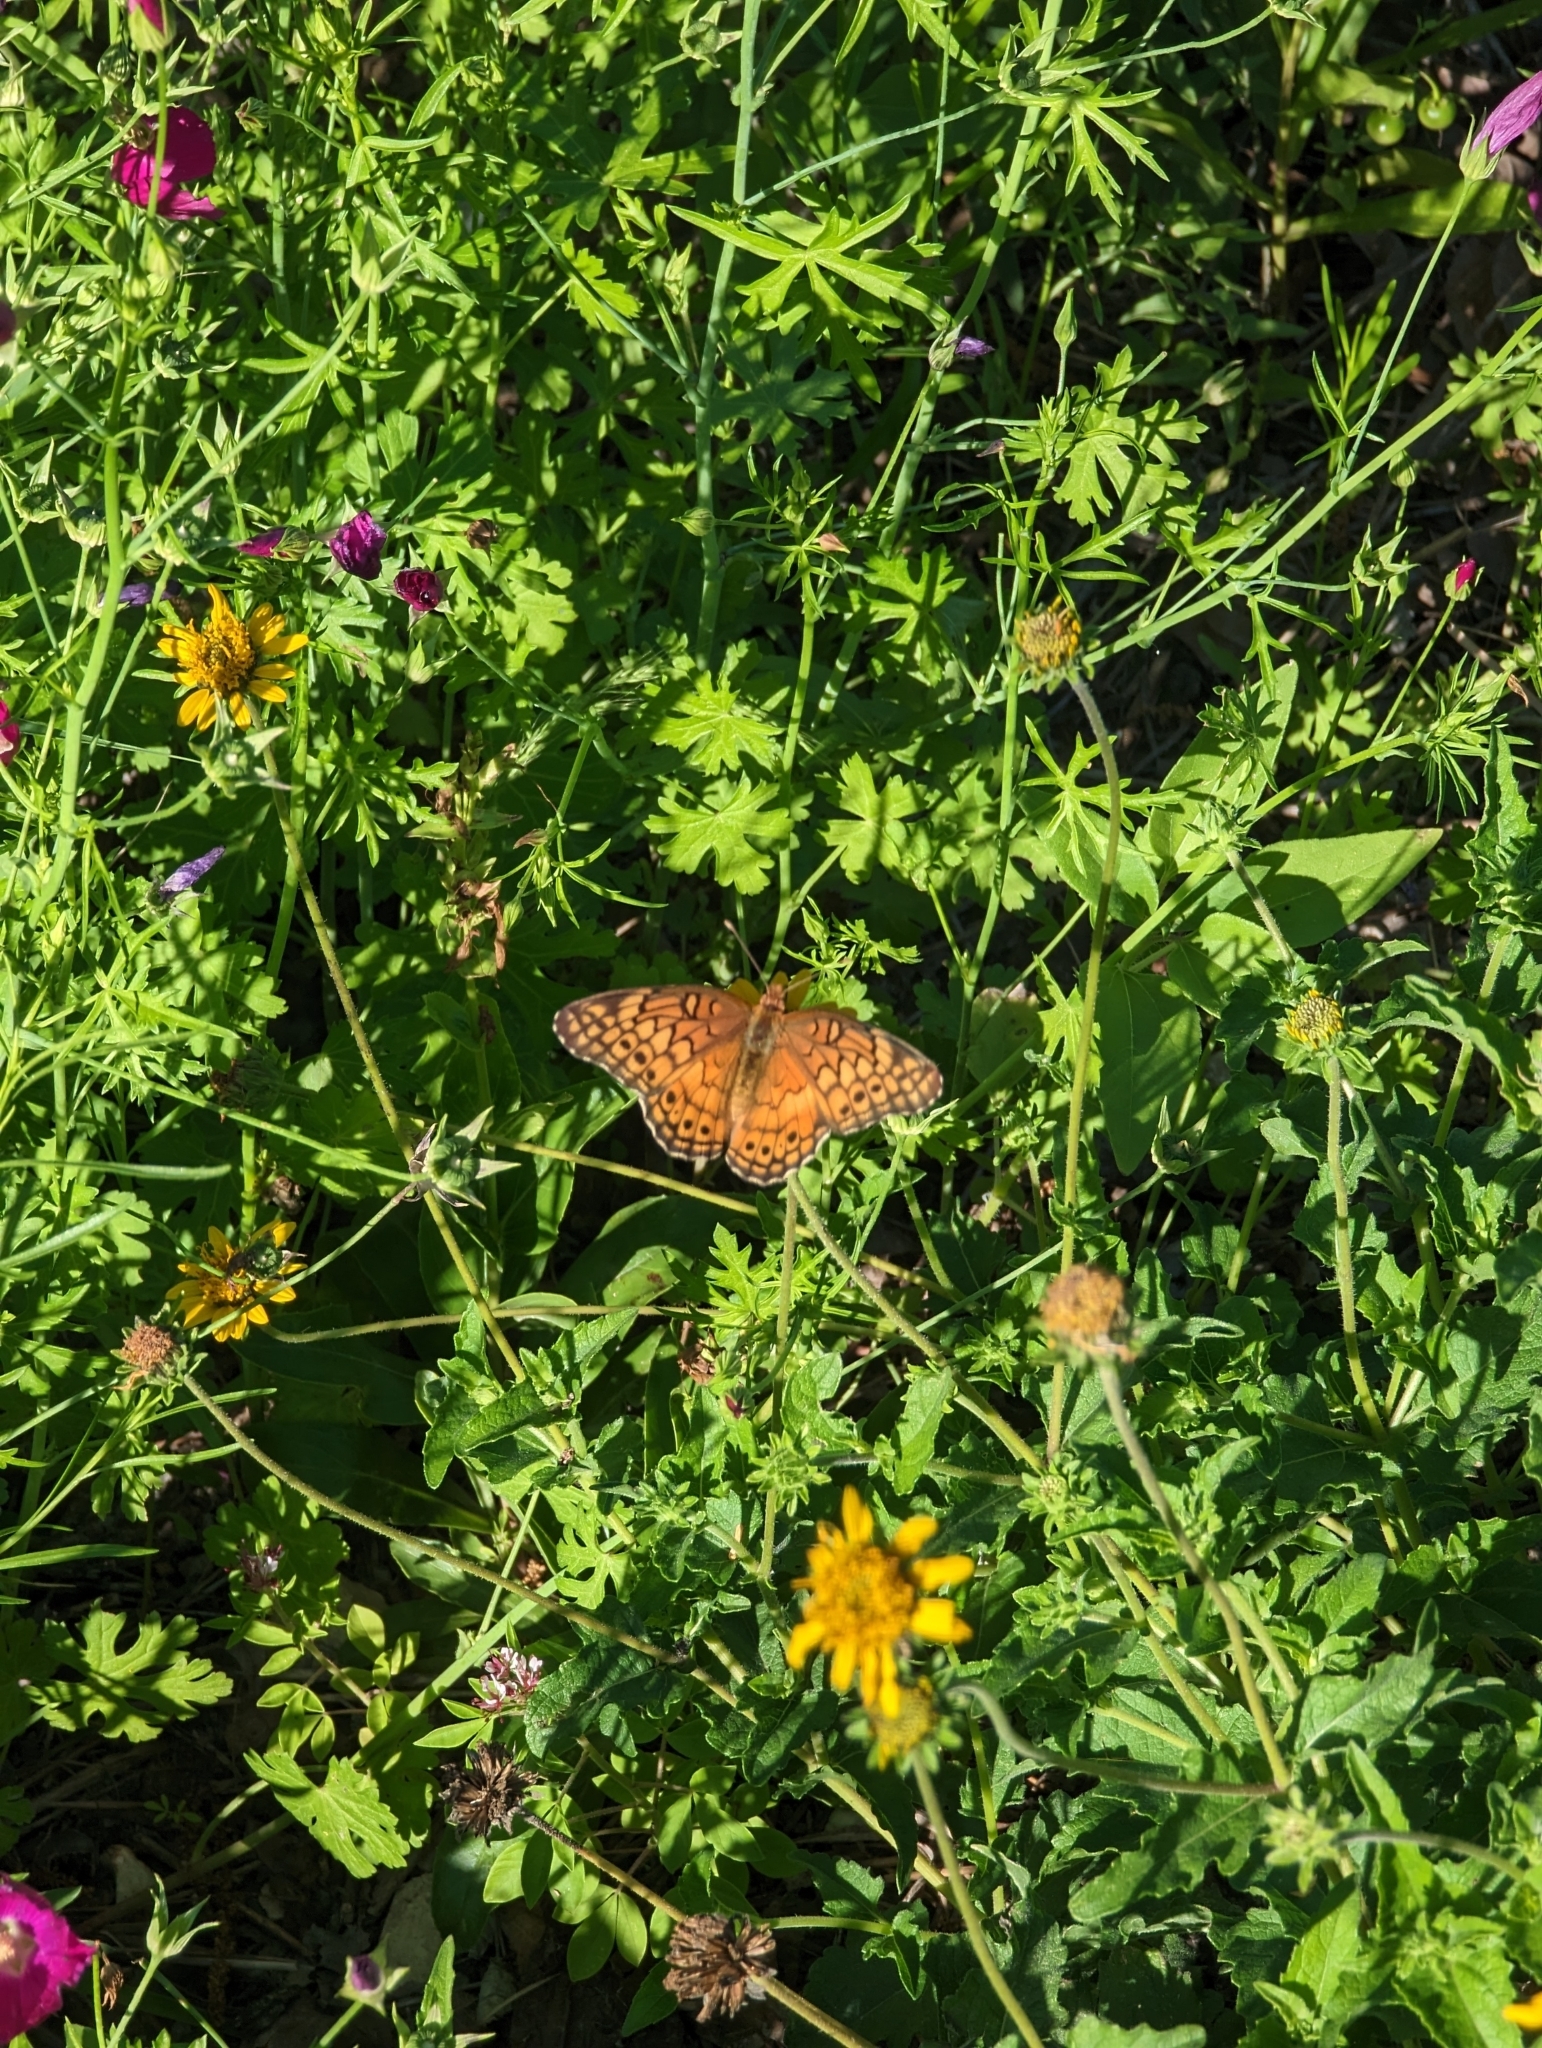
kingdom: Animalia
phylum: Arthropoda
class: Insecta
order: Lepidoptera
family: Nymphalidae
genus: Euptoieta
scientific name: Euptoieta claudia
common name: Variegated fritillary
